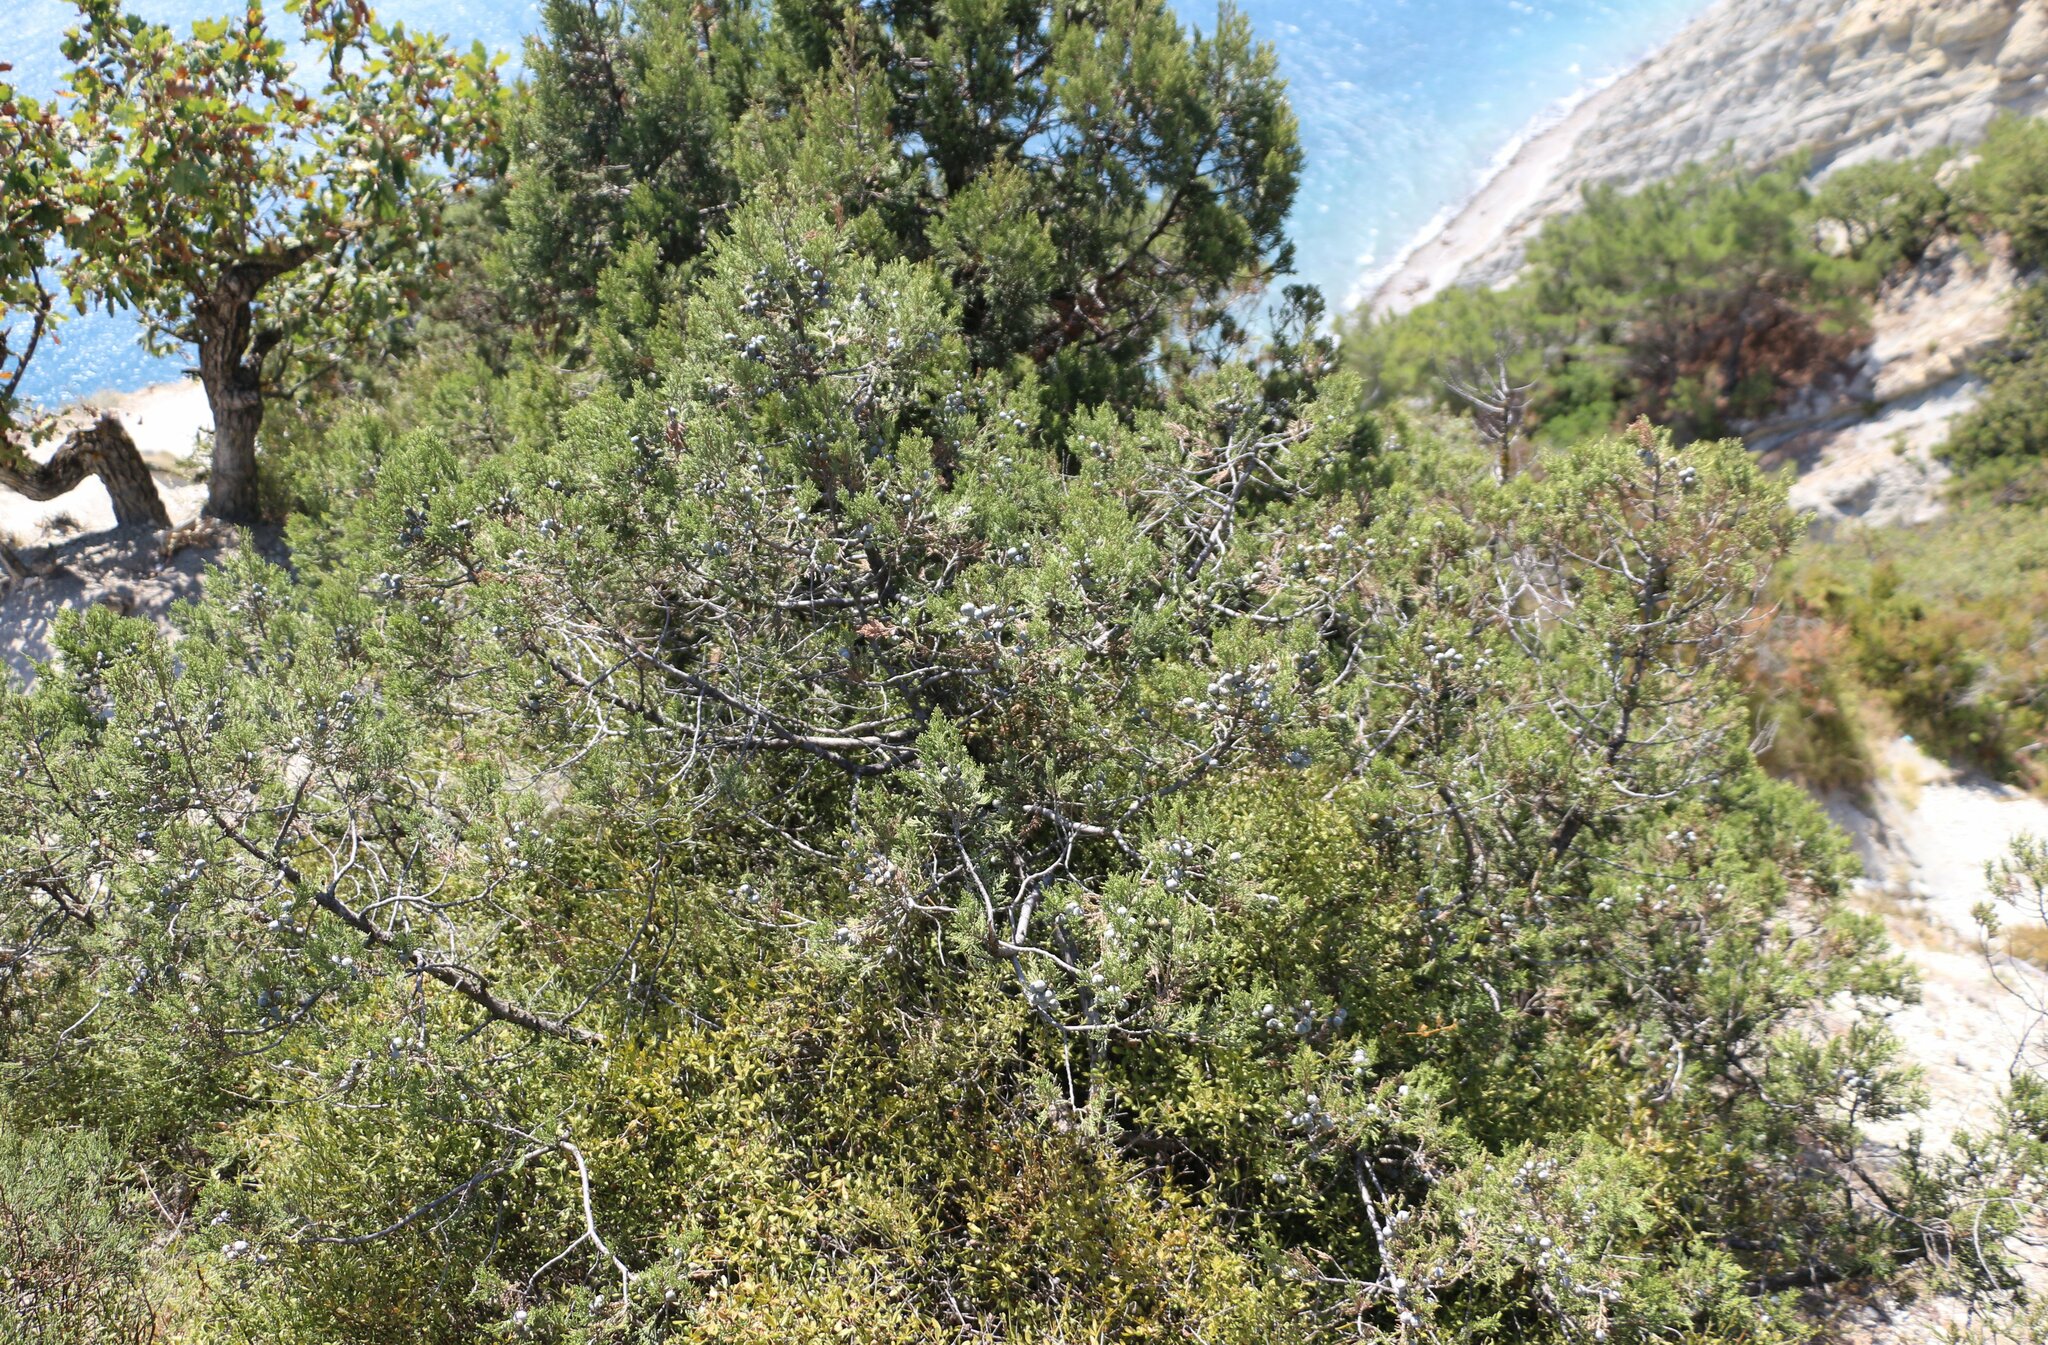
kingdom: Plantae
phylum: Tracheophyta
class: Pinopsida
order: Pinales
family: Cupressaceae
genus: Juniperus
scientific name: Juniperus excelsa
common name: Crimean juniper
